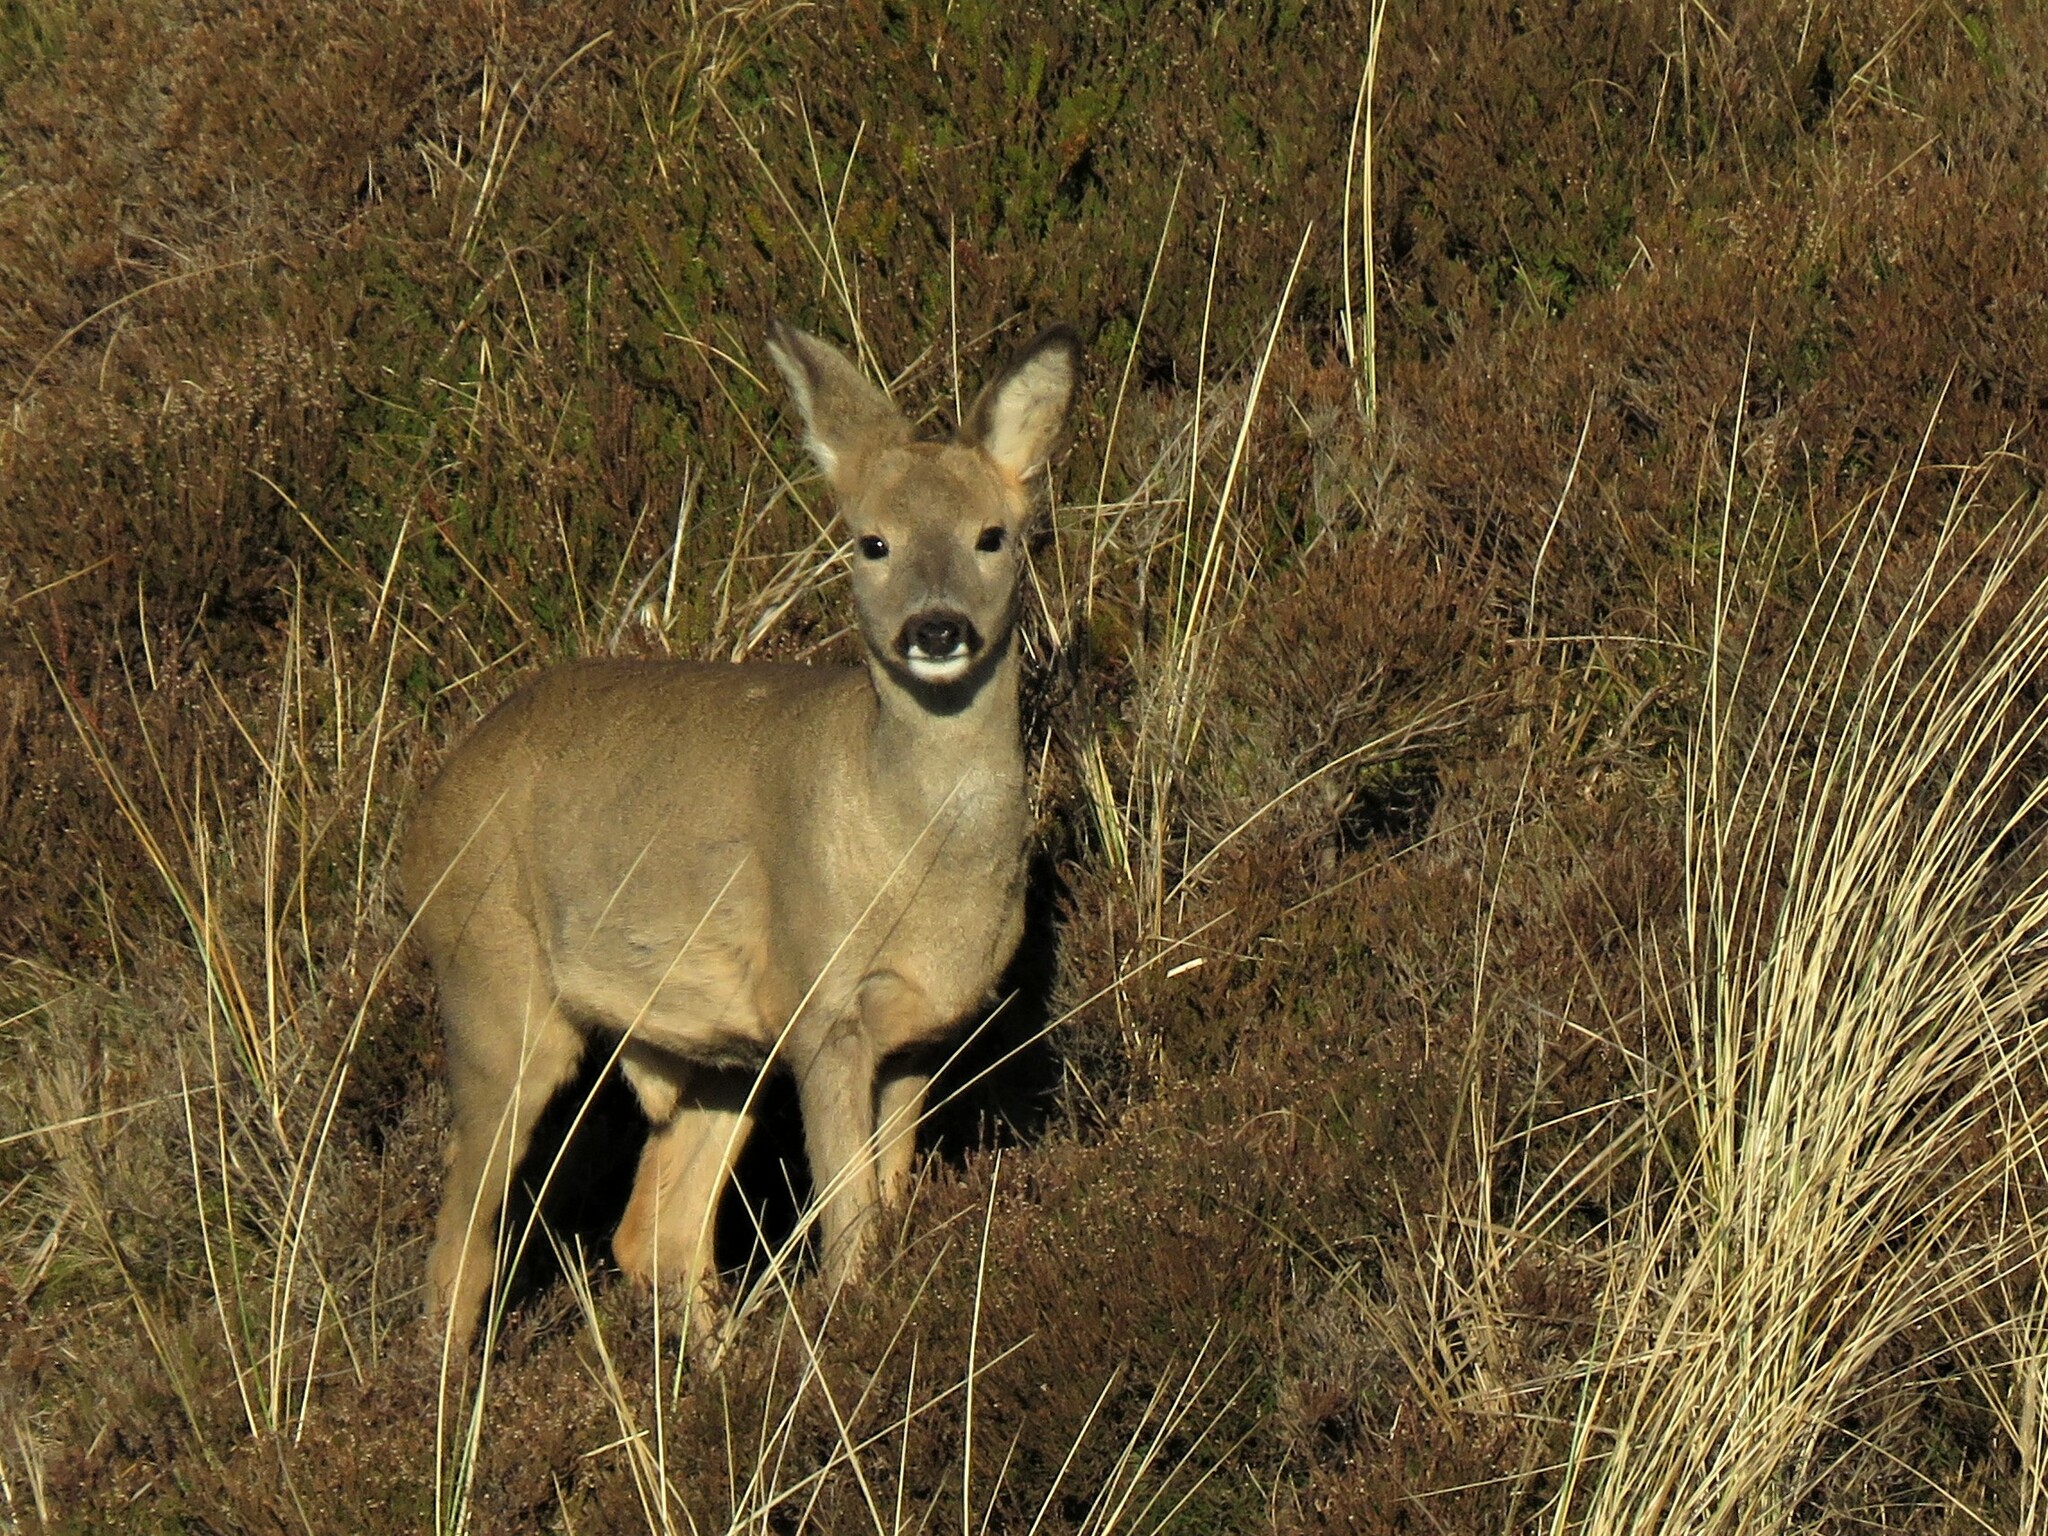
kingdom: Animalia
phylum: Chordata
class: Mammalia
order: Artiodactyla
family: Cervidae
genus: Capreolus
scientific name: Capreolus capreolus
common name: Western roe deer
